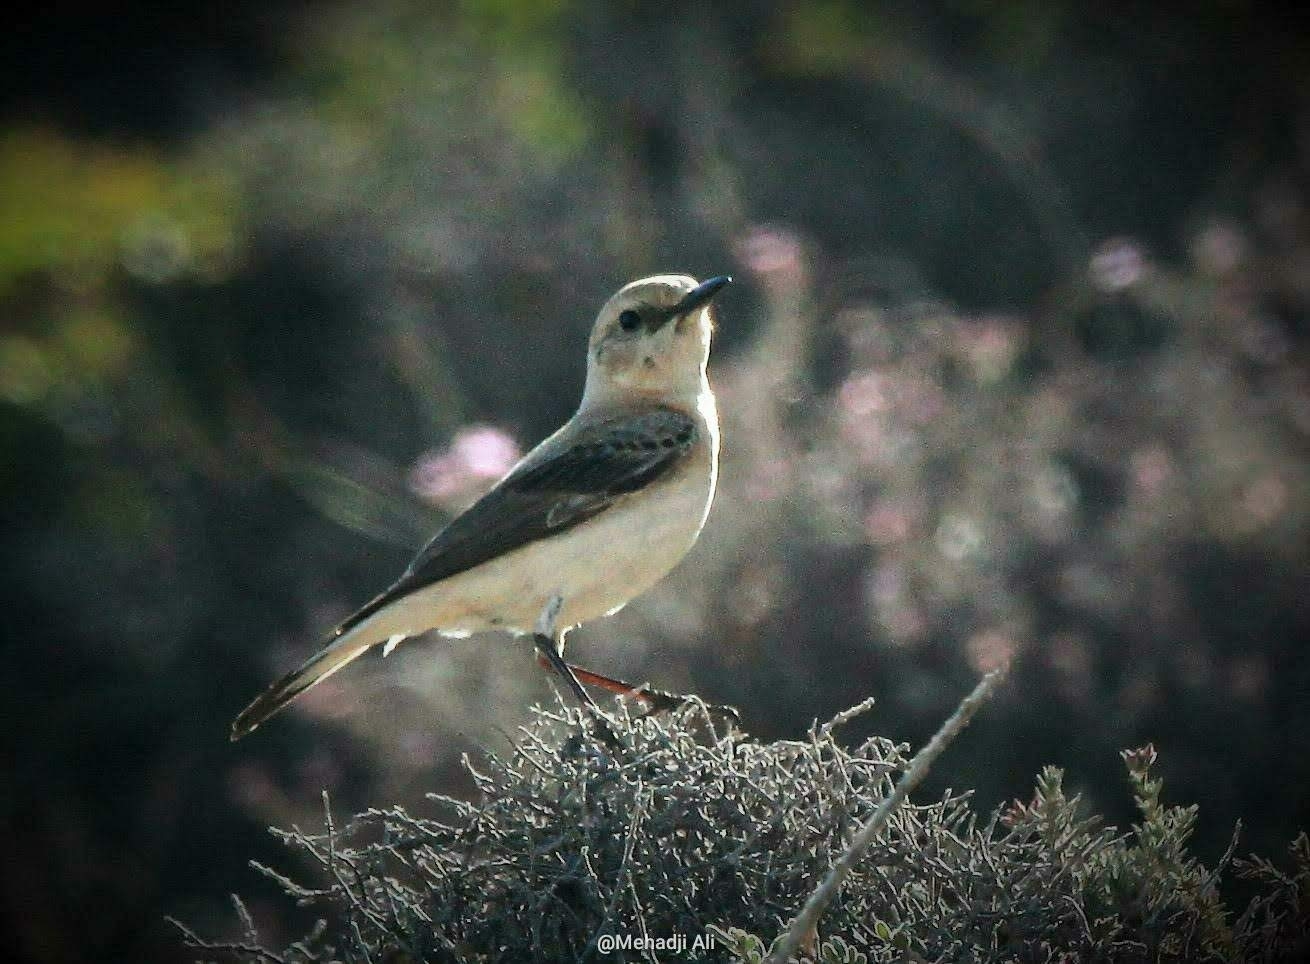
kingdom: Animalia
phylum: Chordata
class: Aves
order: Passeriformes
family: Muscicapidae
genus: Oenanthe
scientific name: Oenanthe hispanica
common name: Black-eared wheatear
